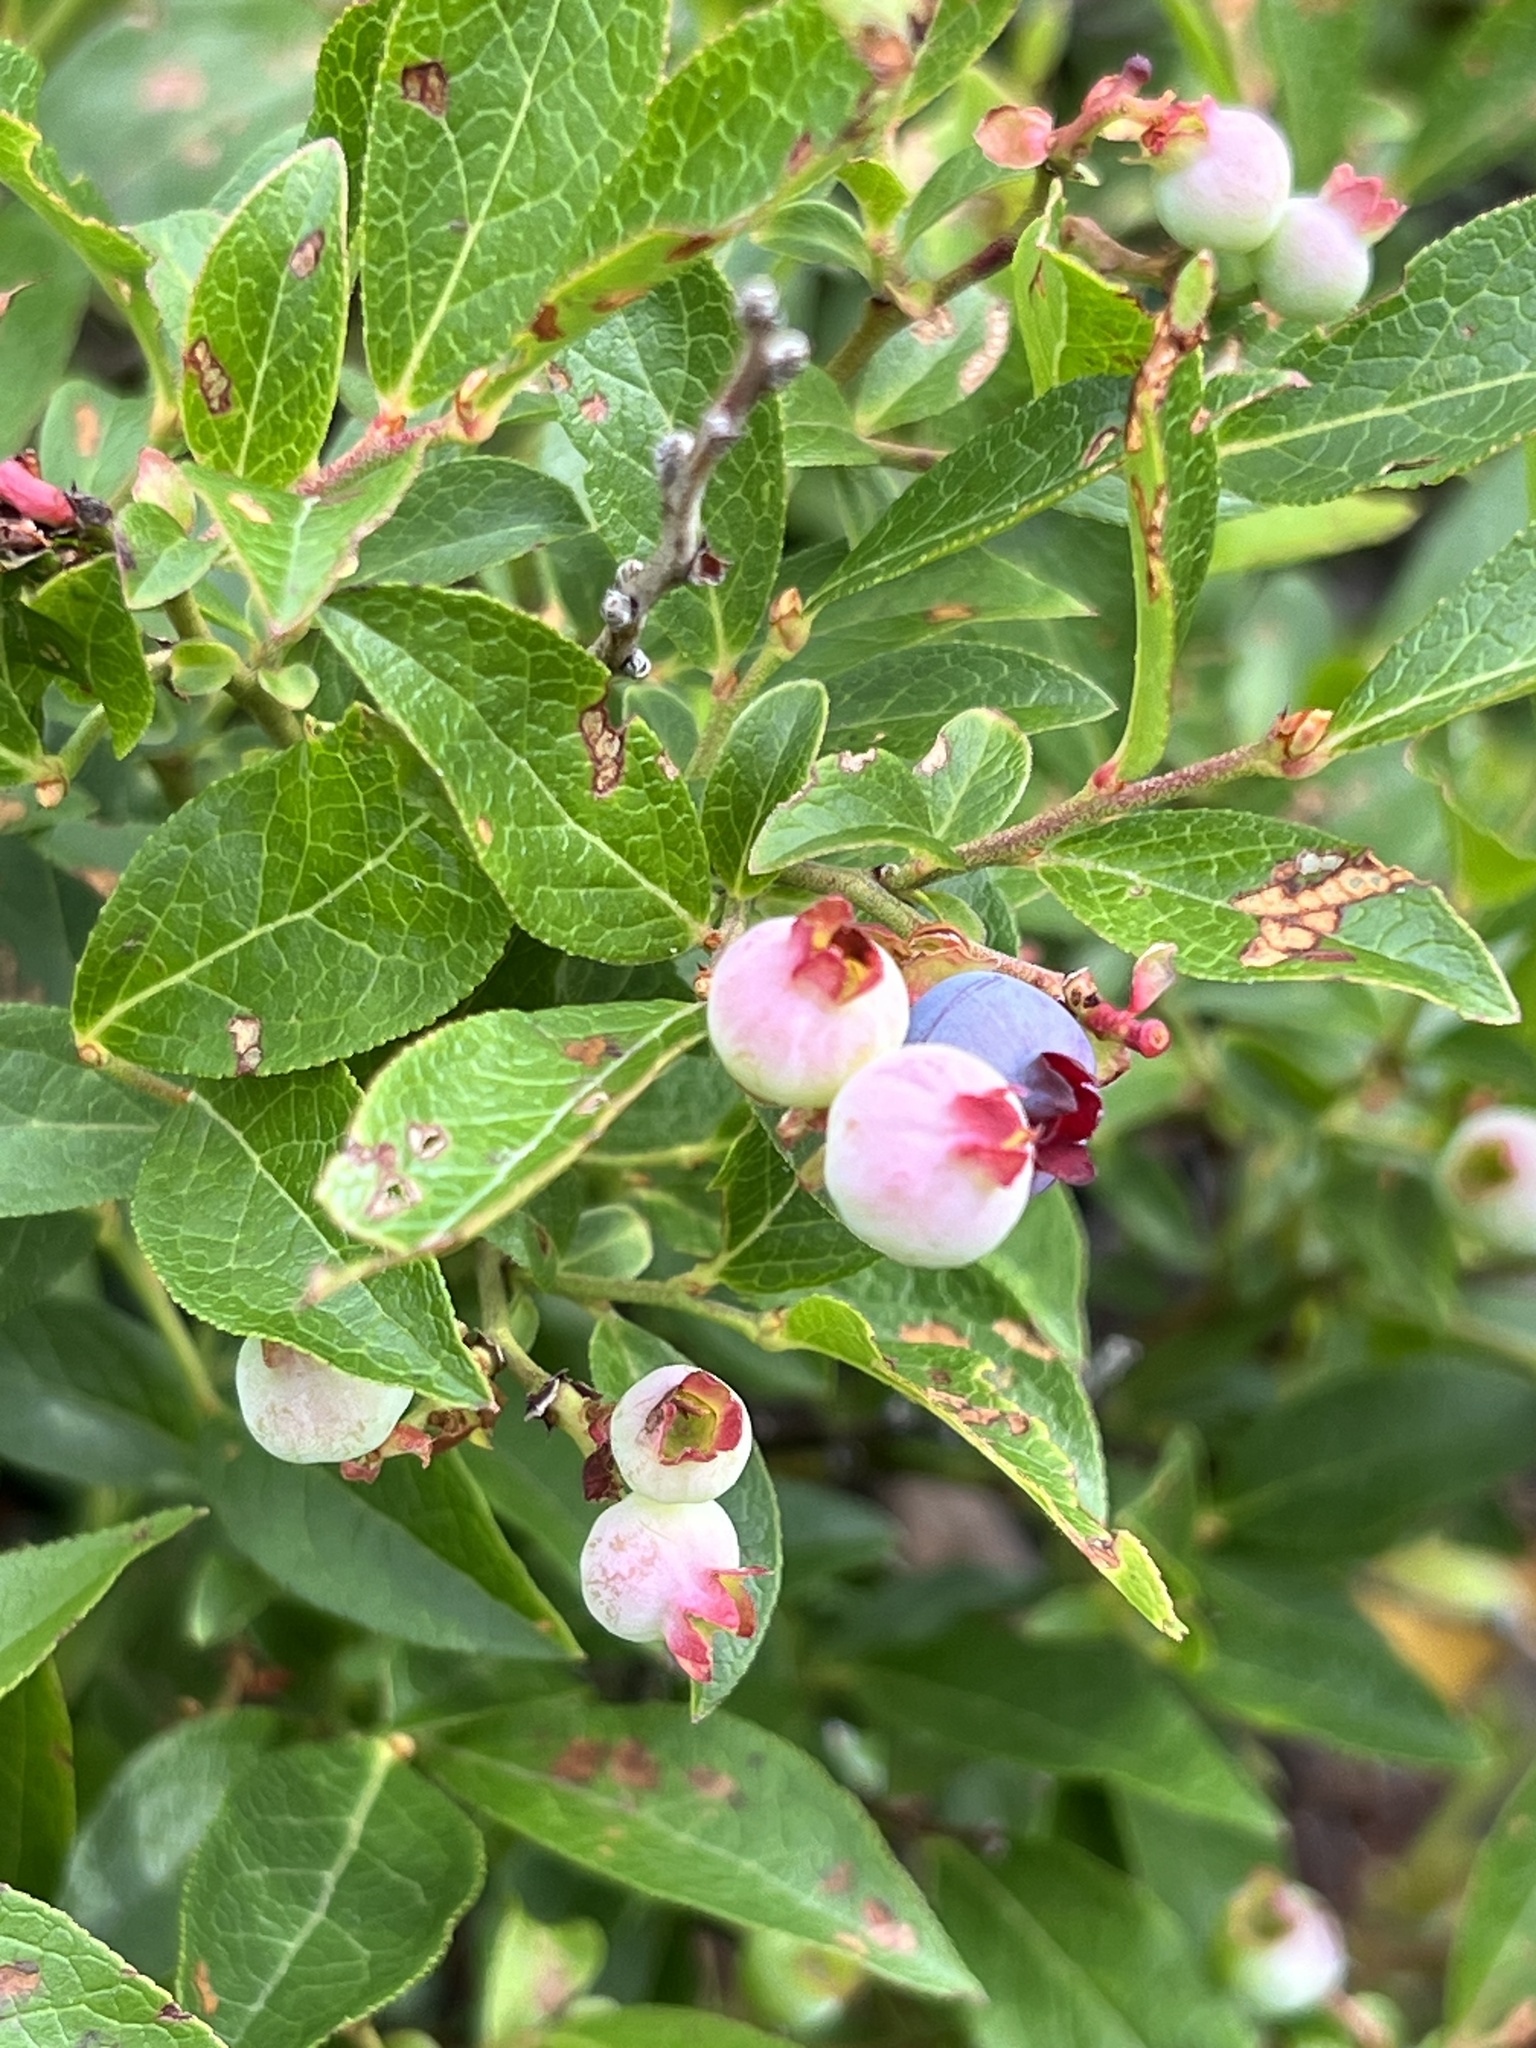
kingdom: Plantae
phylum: Tracheophyta
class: Magnoliopsida
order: Ericales
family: Ericaceae
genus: Vaccinium
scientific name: Vaccinium angustifolium
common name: Early lowbush blueberry
